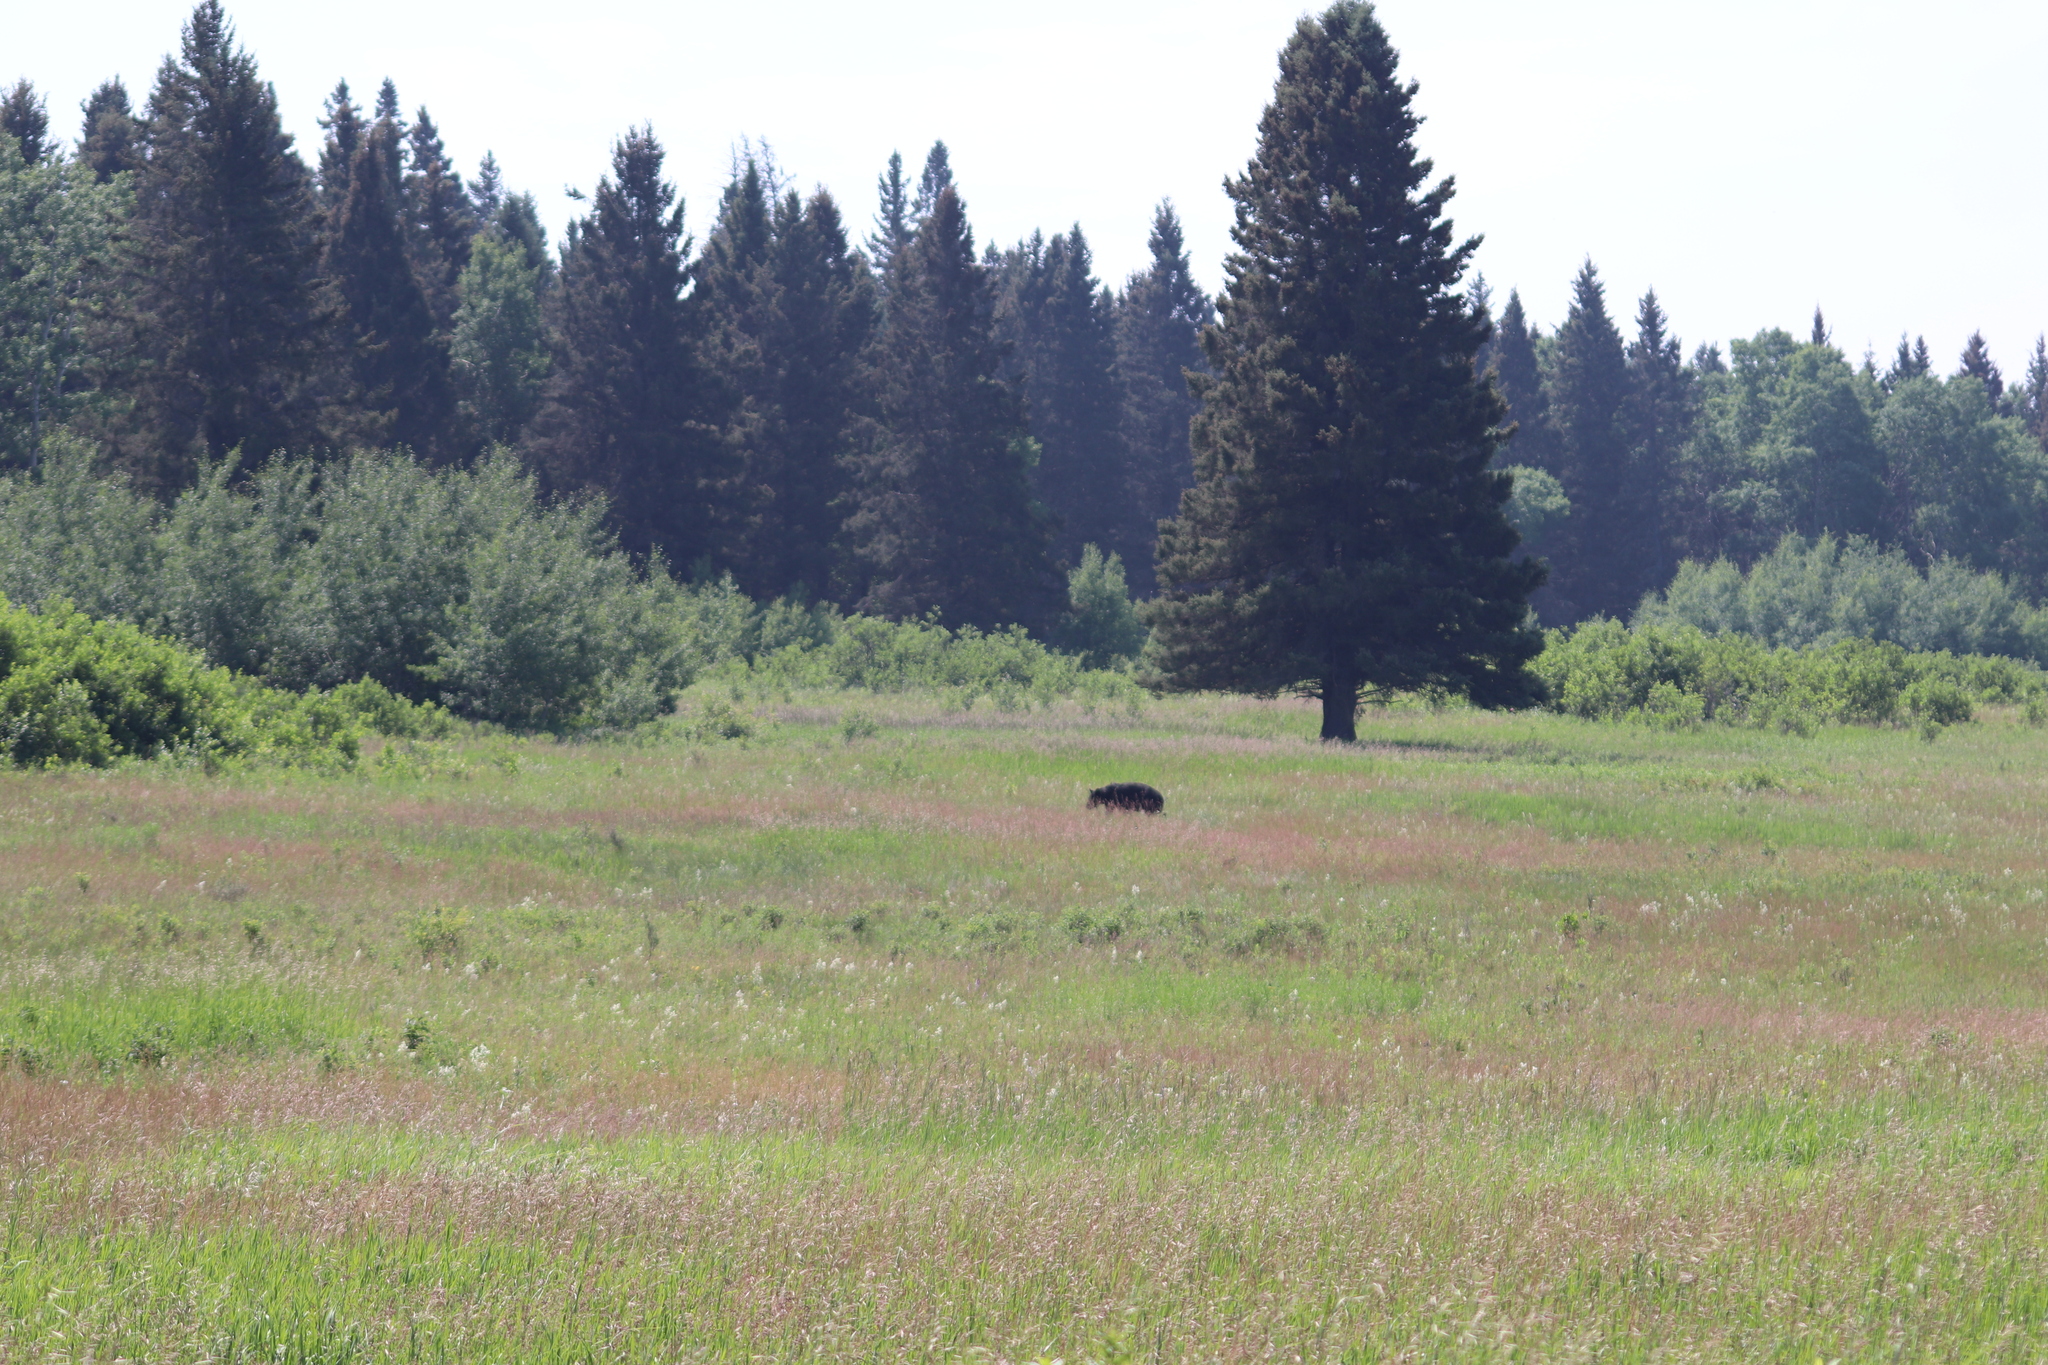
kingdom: Animalia
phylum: Chordata
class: Mammalia
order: Carnivora
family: Ursidae
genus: Ursus
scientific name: Ursus americanus
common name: American black bear
